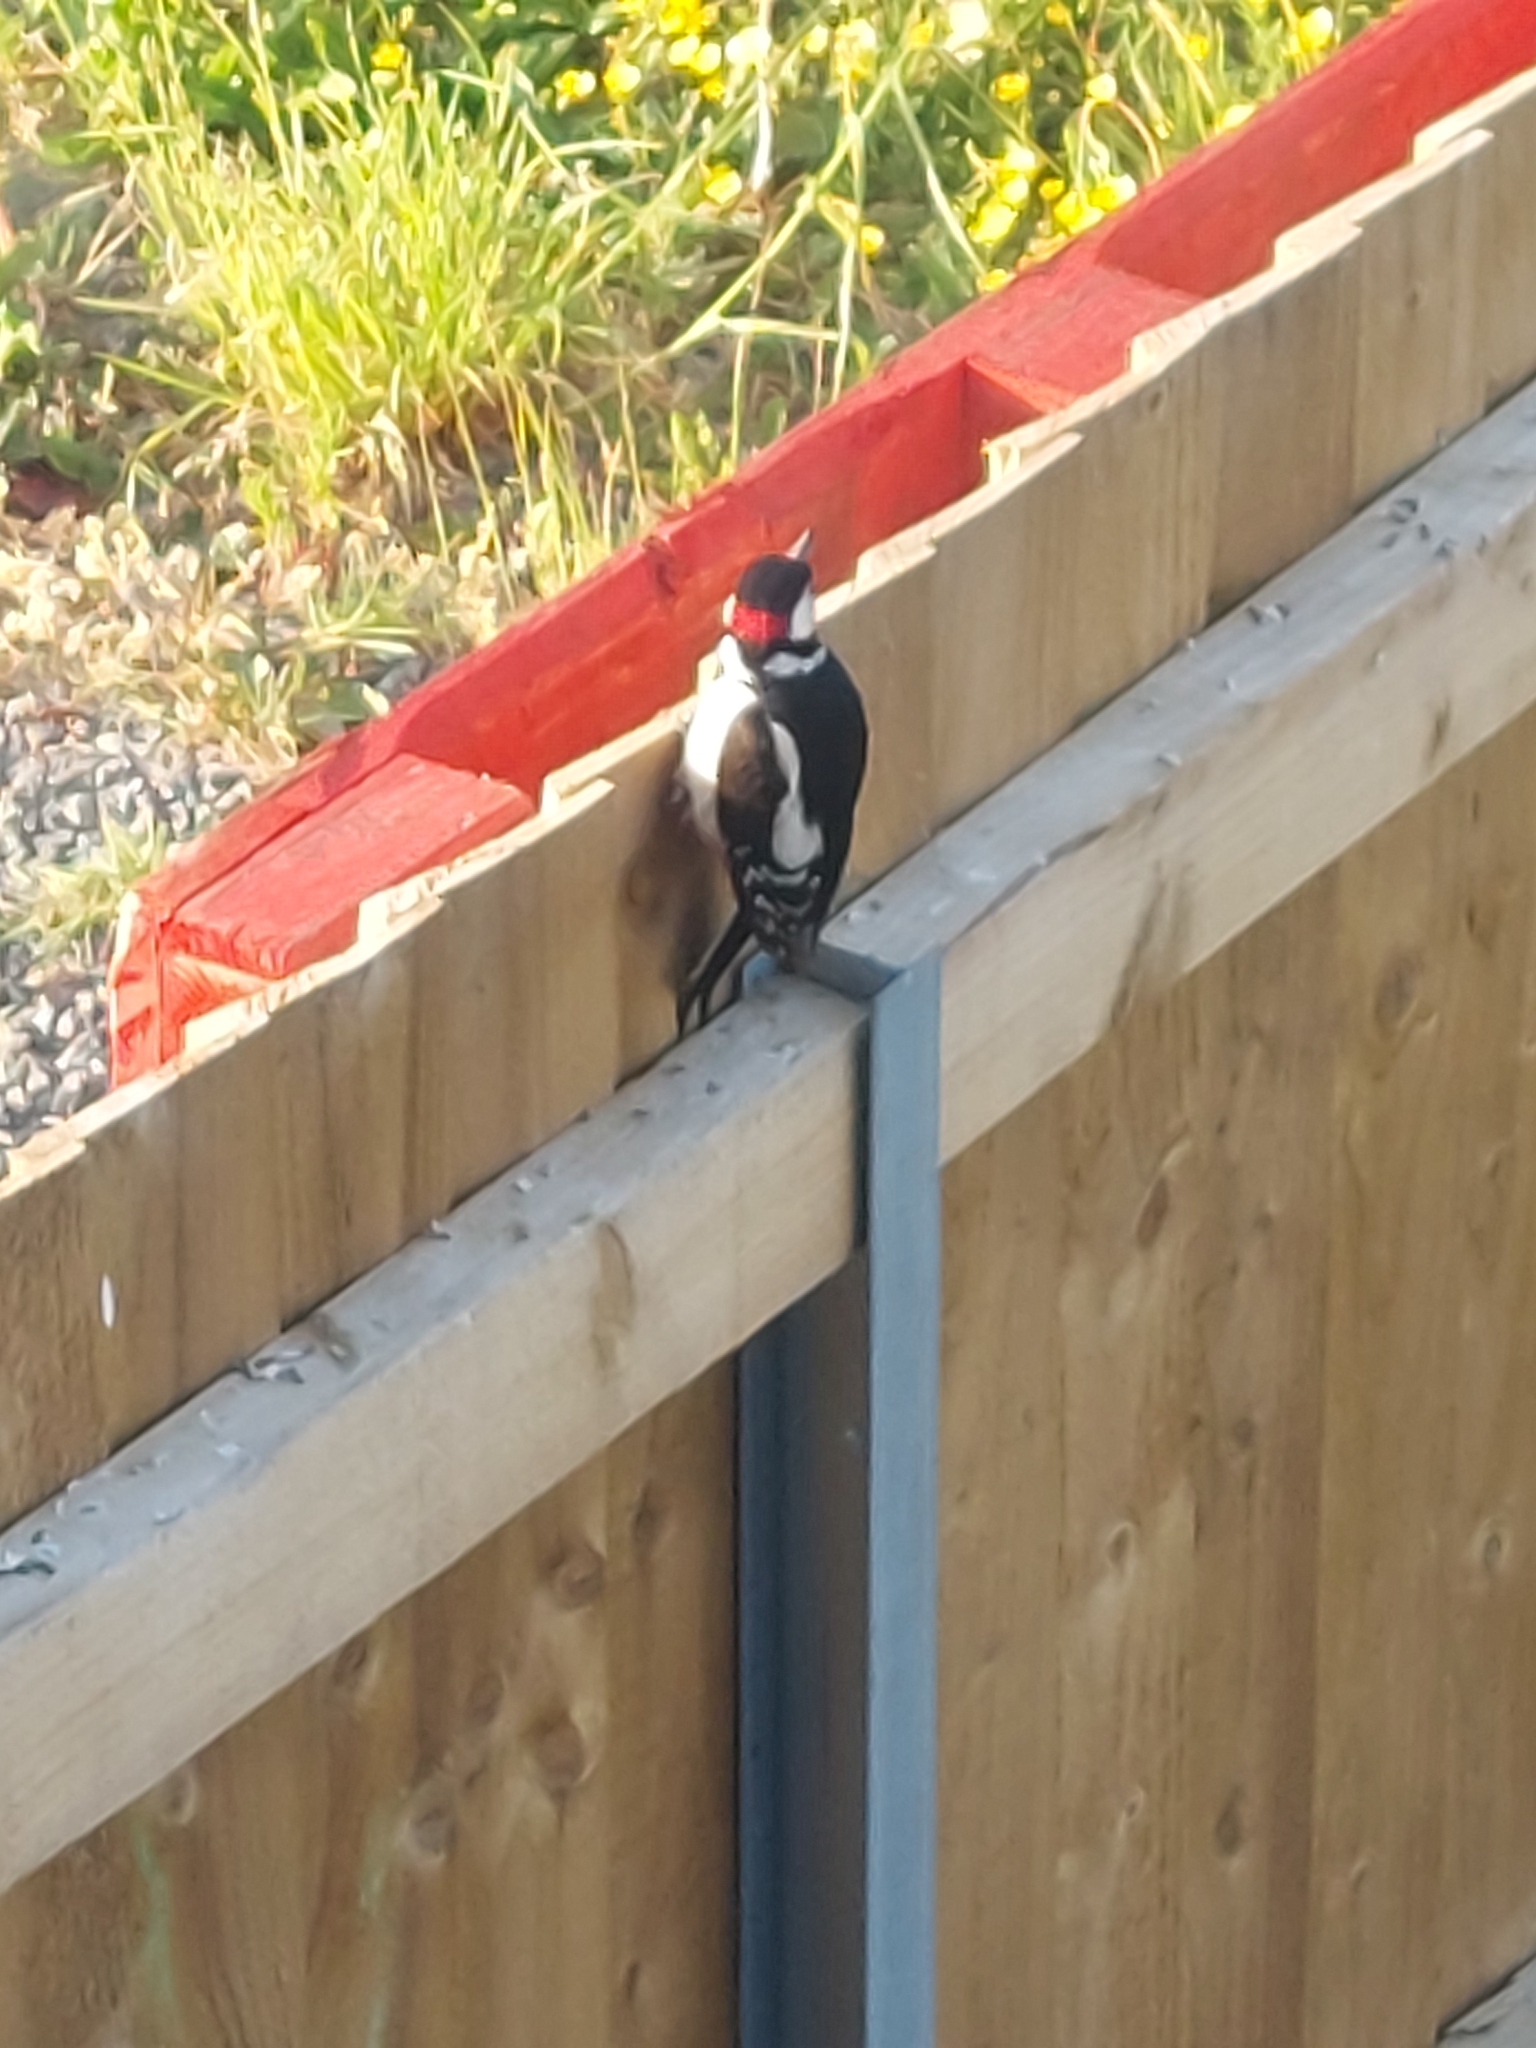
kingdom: Animalia
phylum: Chordata
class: Aves
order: Piciformes
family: Picidae
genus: Dendrocopos
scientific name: Dendrocopos major
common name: Great spotted woodpecker
